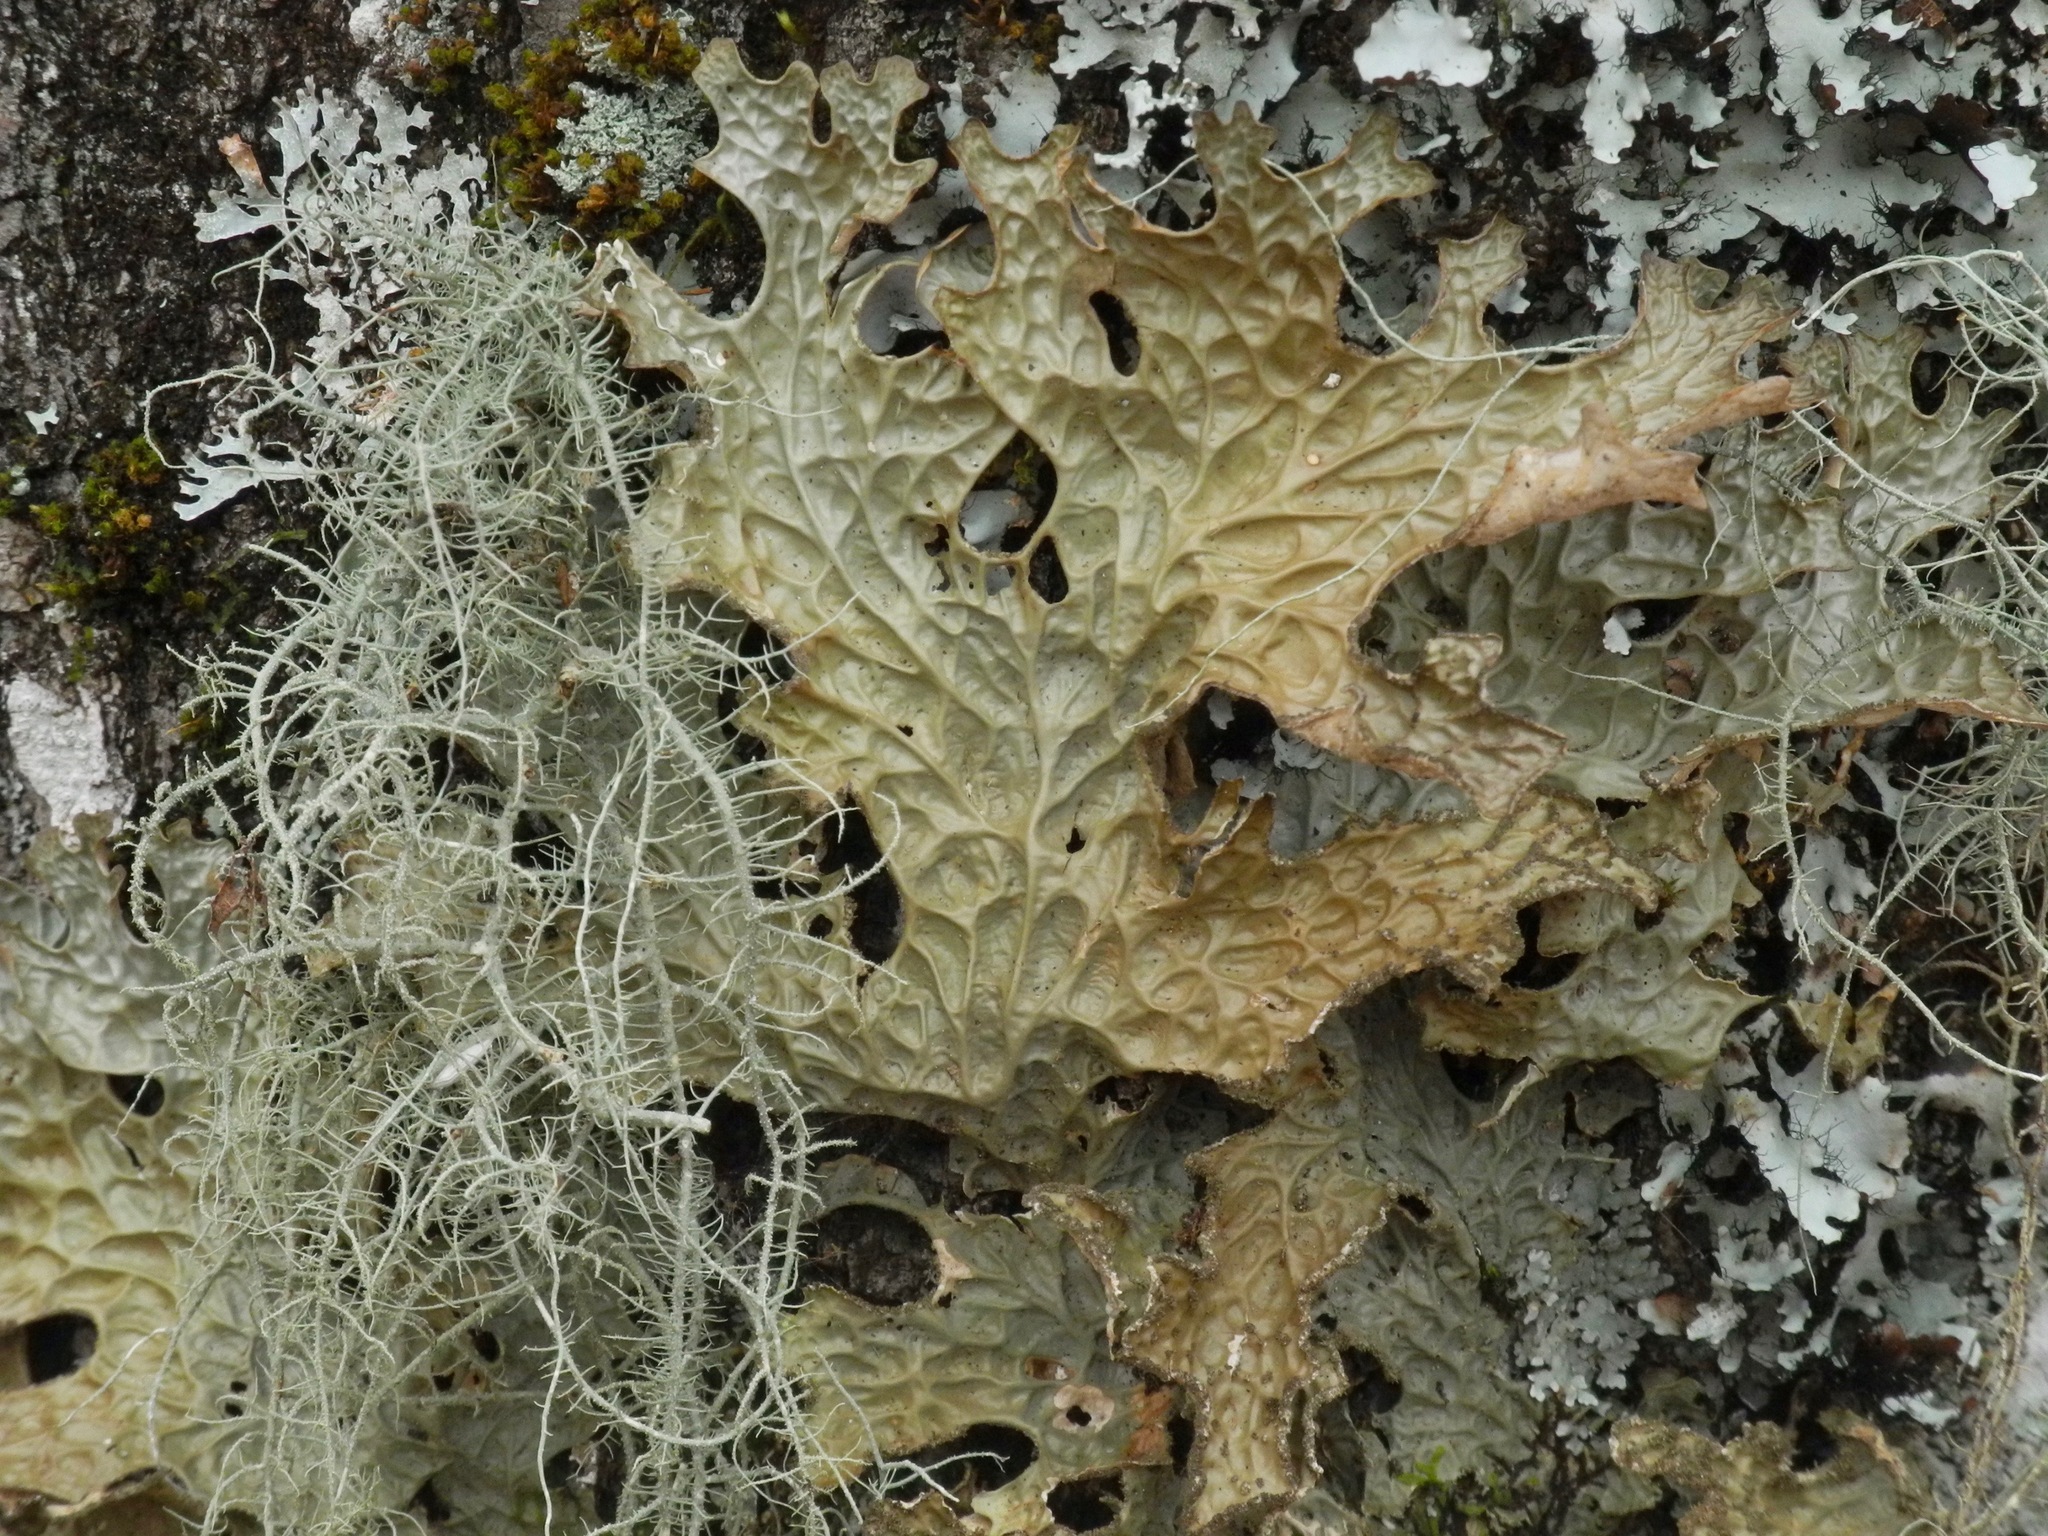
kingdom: Fungi
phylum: Ascomycota
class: Lecanoromycetes
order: Peltigerales
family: Lobariaceae
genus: Lobaria
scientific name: Lobaria pulmonaria
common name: Lungwort
